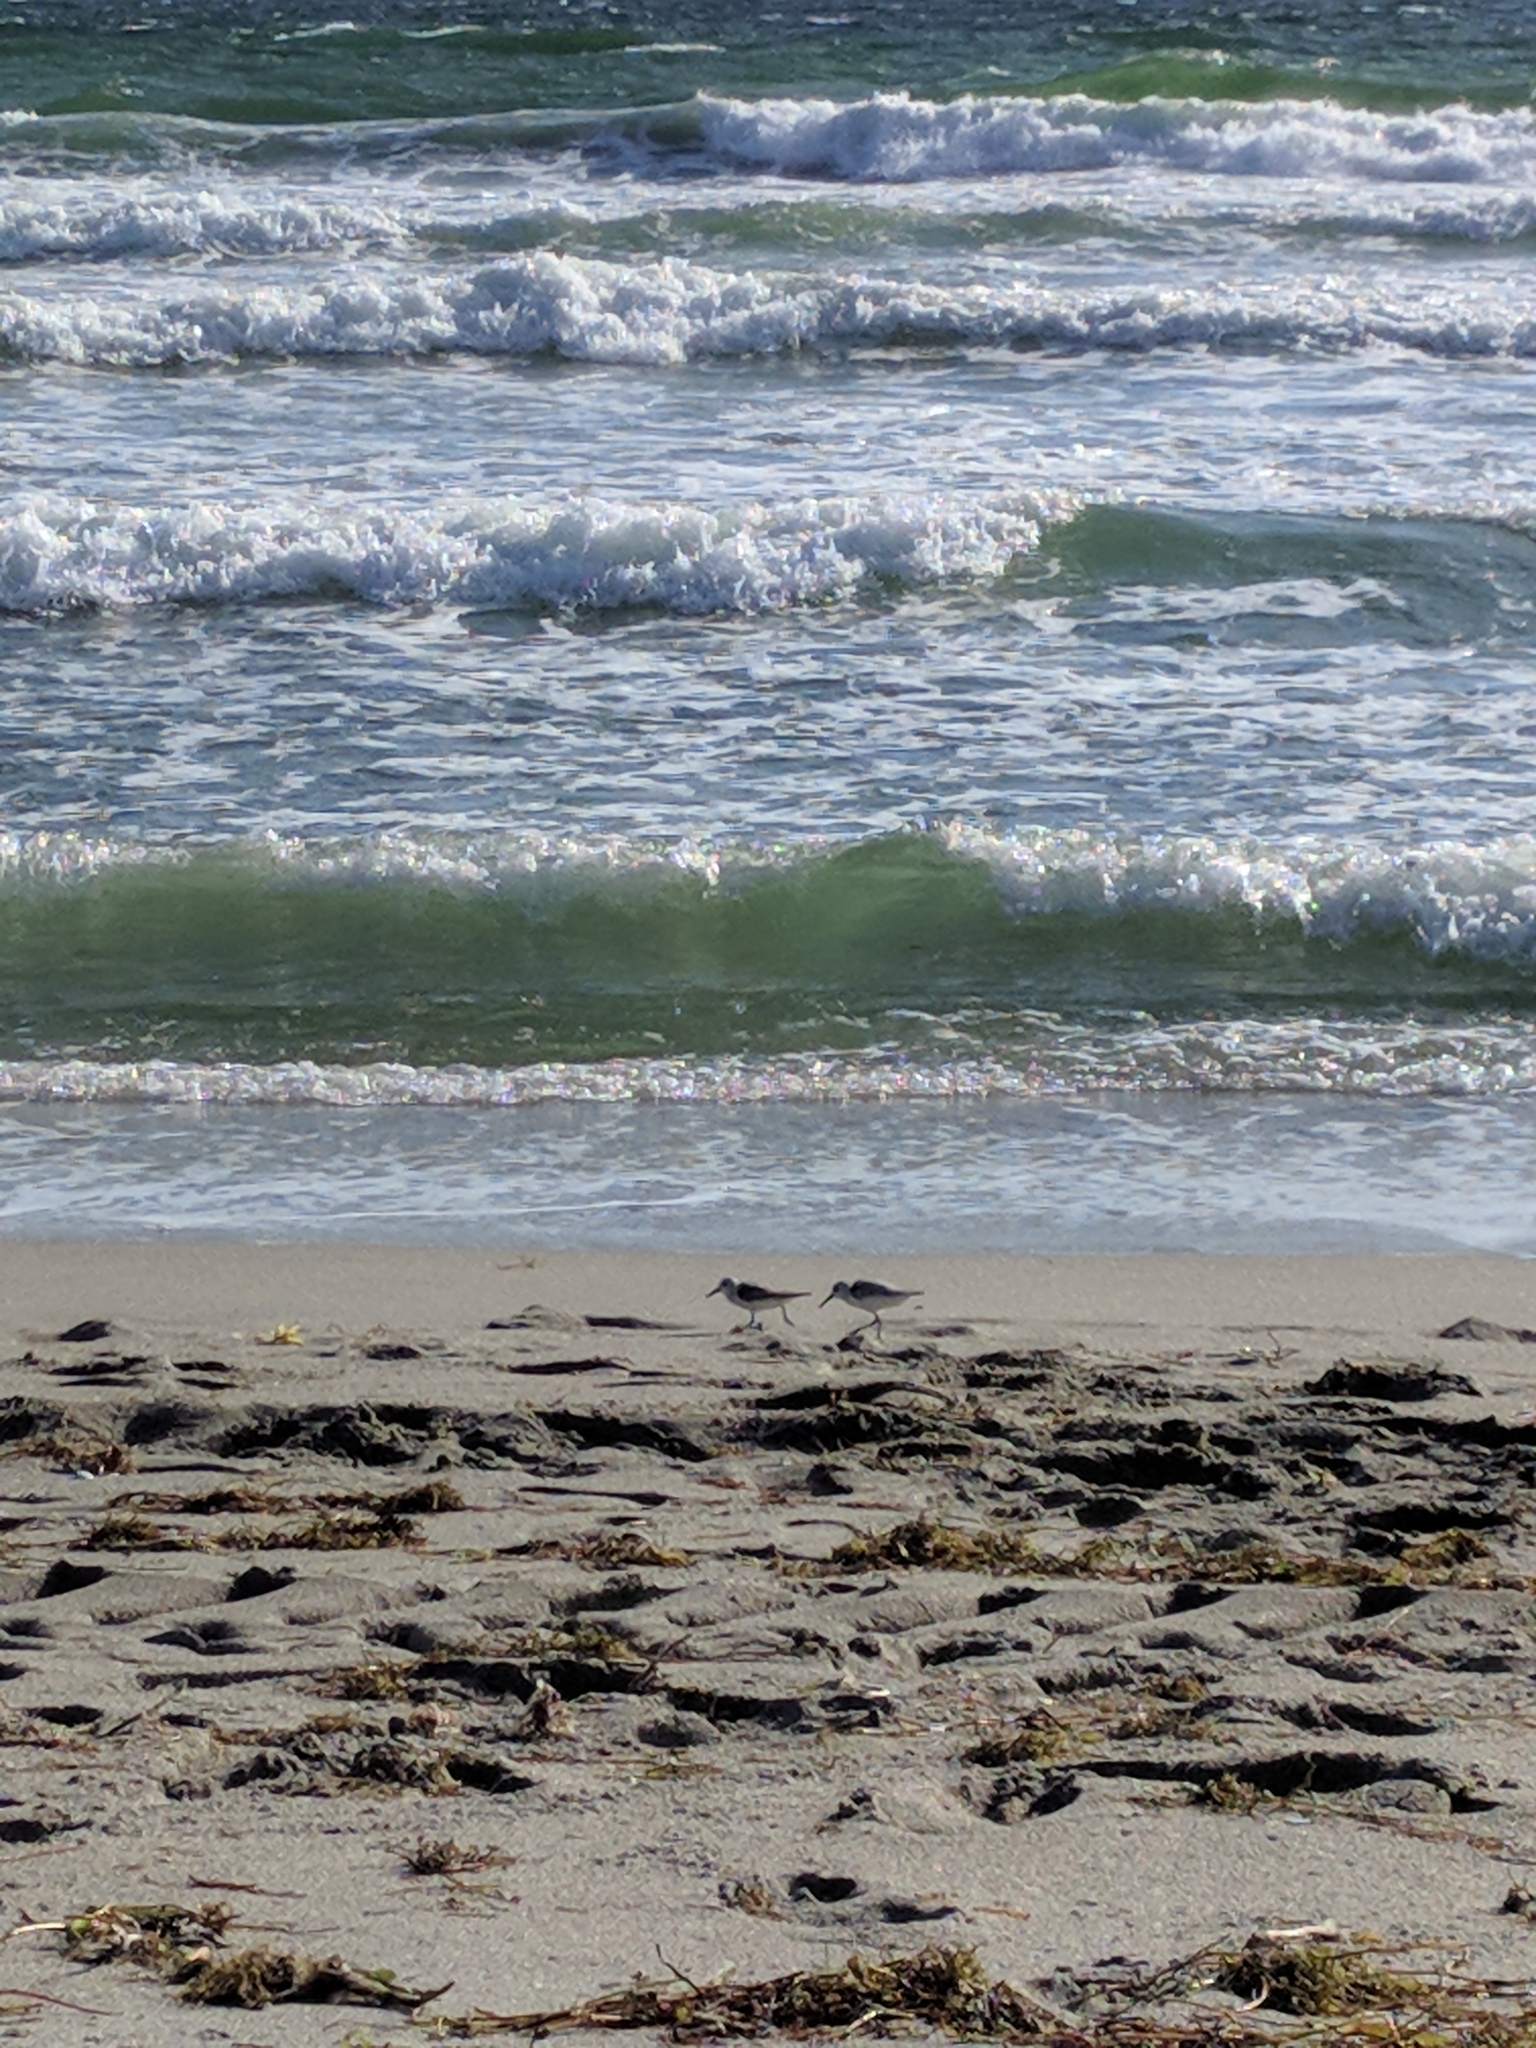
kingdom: Animalia
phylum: Chordata
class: Aves
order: Charadriiformes
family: Scolopacidae
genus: Calidris
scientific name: Calidris alba
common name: Sanderling
